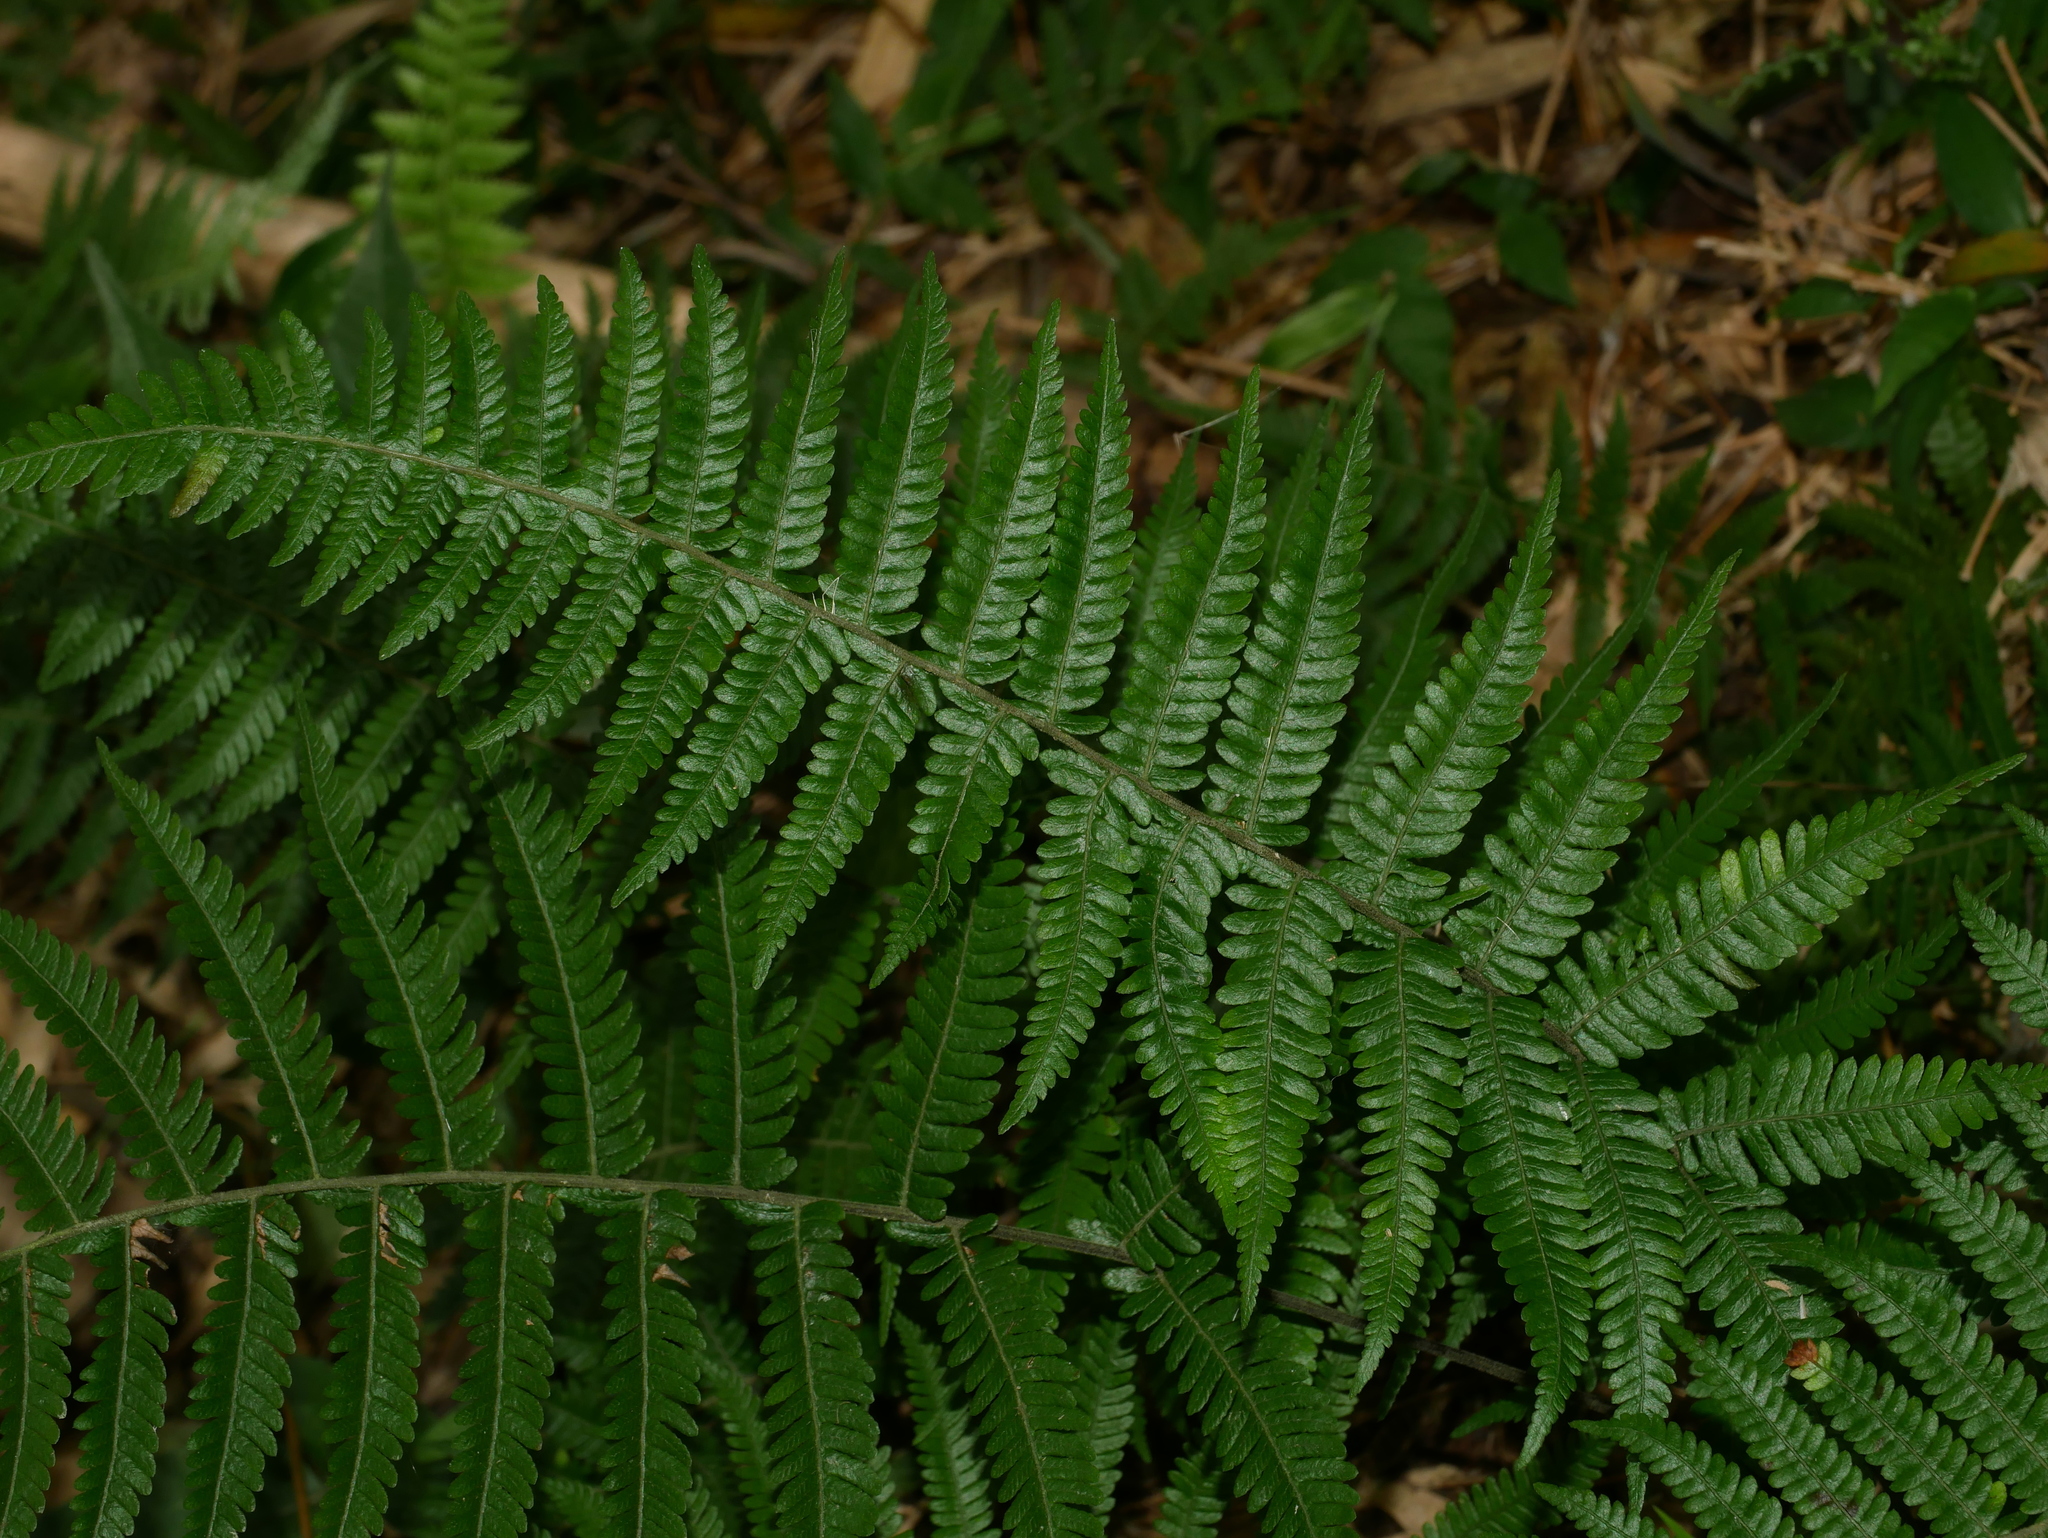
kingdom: Plantae
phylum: Tracheophyta
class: Polypodiopsida
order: Polypodiales
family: Thelypteridaceae
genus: Amauropelta
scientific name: Amauropelta glanduligera
